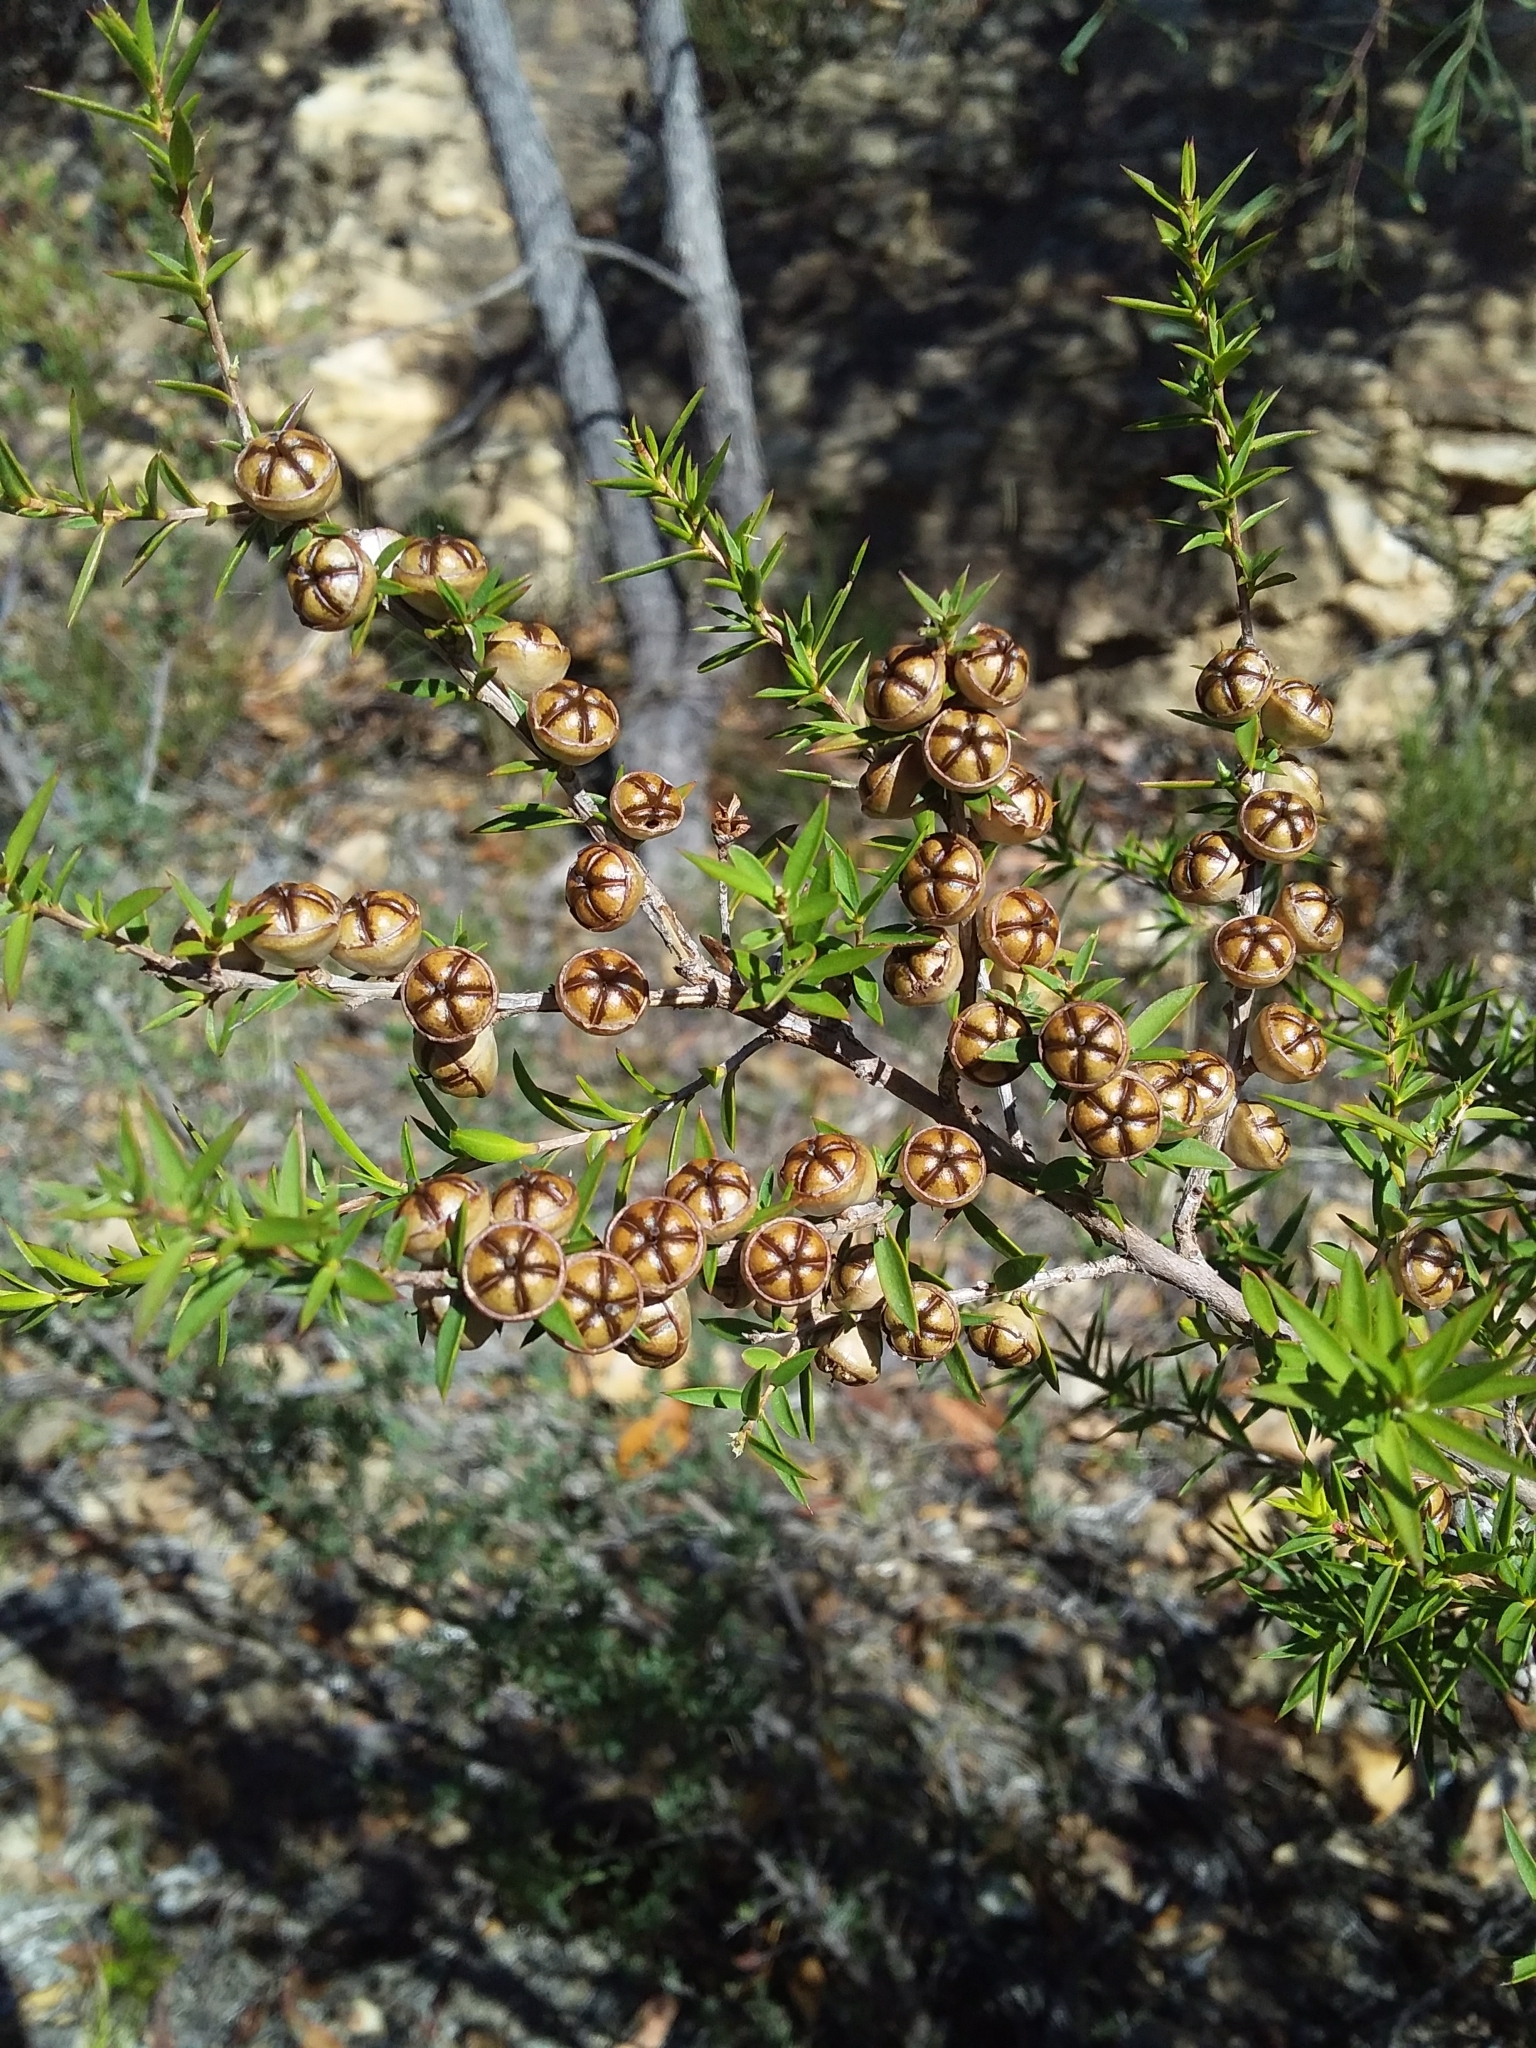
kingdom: Plantae
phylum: Tracheophyta
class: Magnoliopsida
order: Myrtales
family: Myrtaceae
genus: Leptospermum
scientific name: Leptospermum continentale
